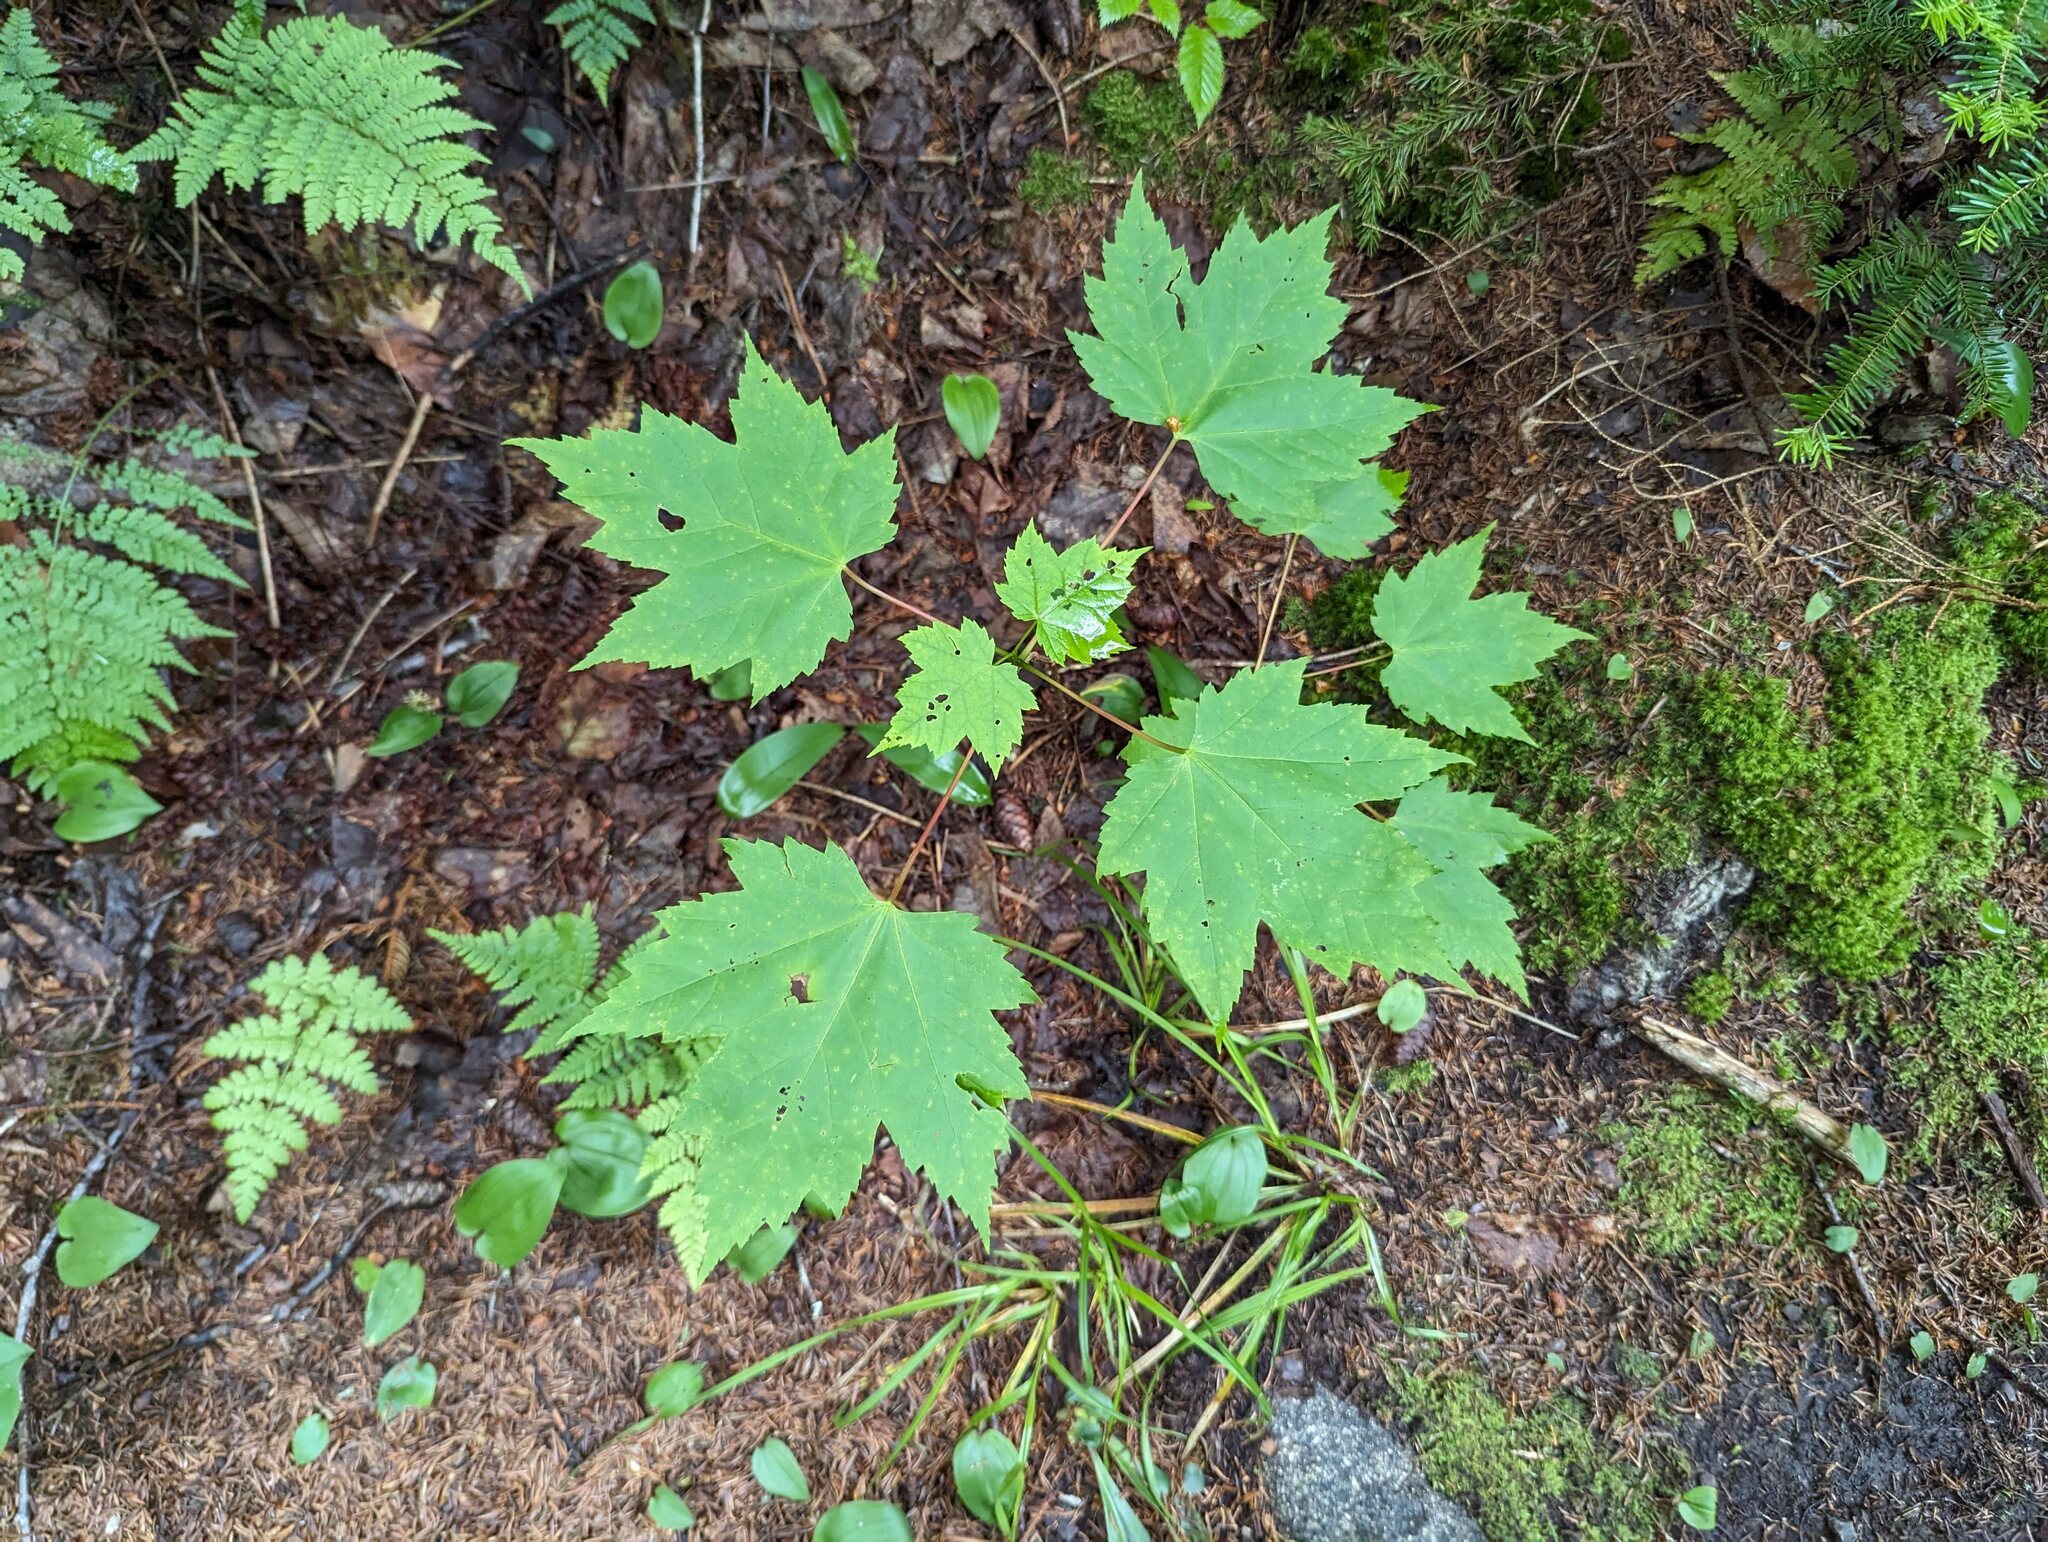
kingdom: Plantae
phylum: Tracheophyta
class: Magnoliopsida
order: Sapindales
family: Sapindaceae
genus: Acer
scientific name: Acer rubrum
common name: Red maple
